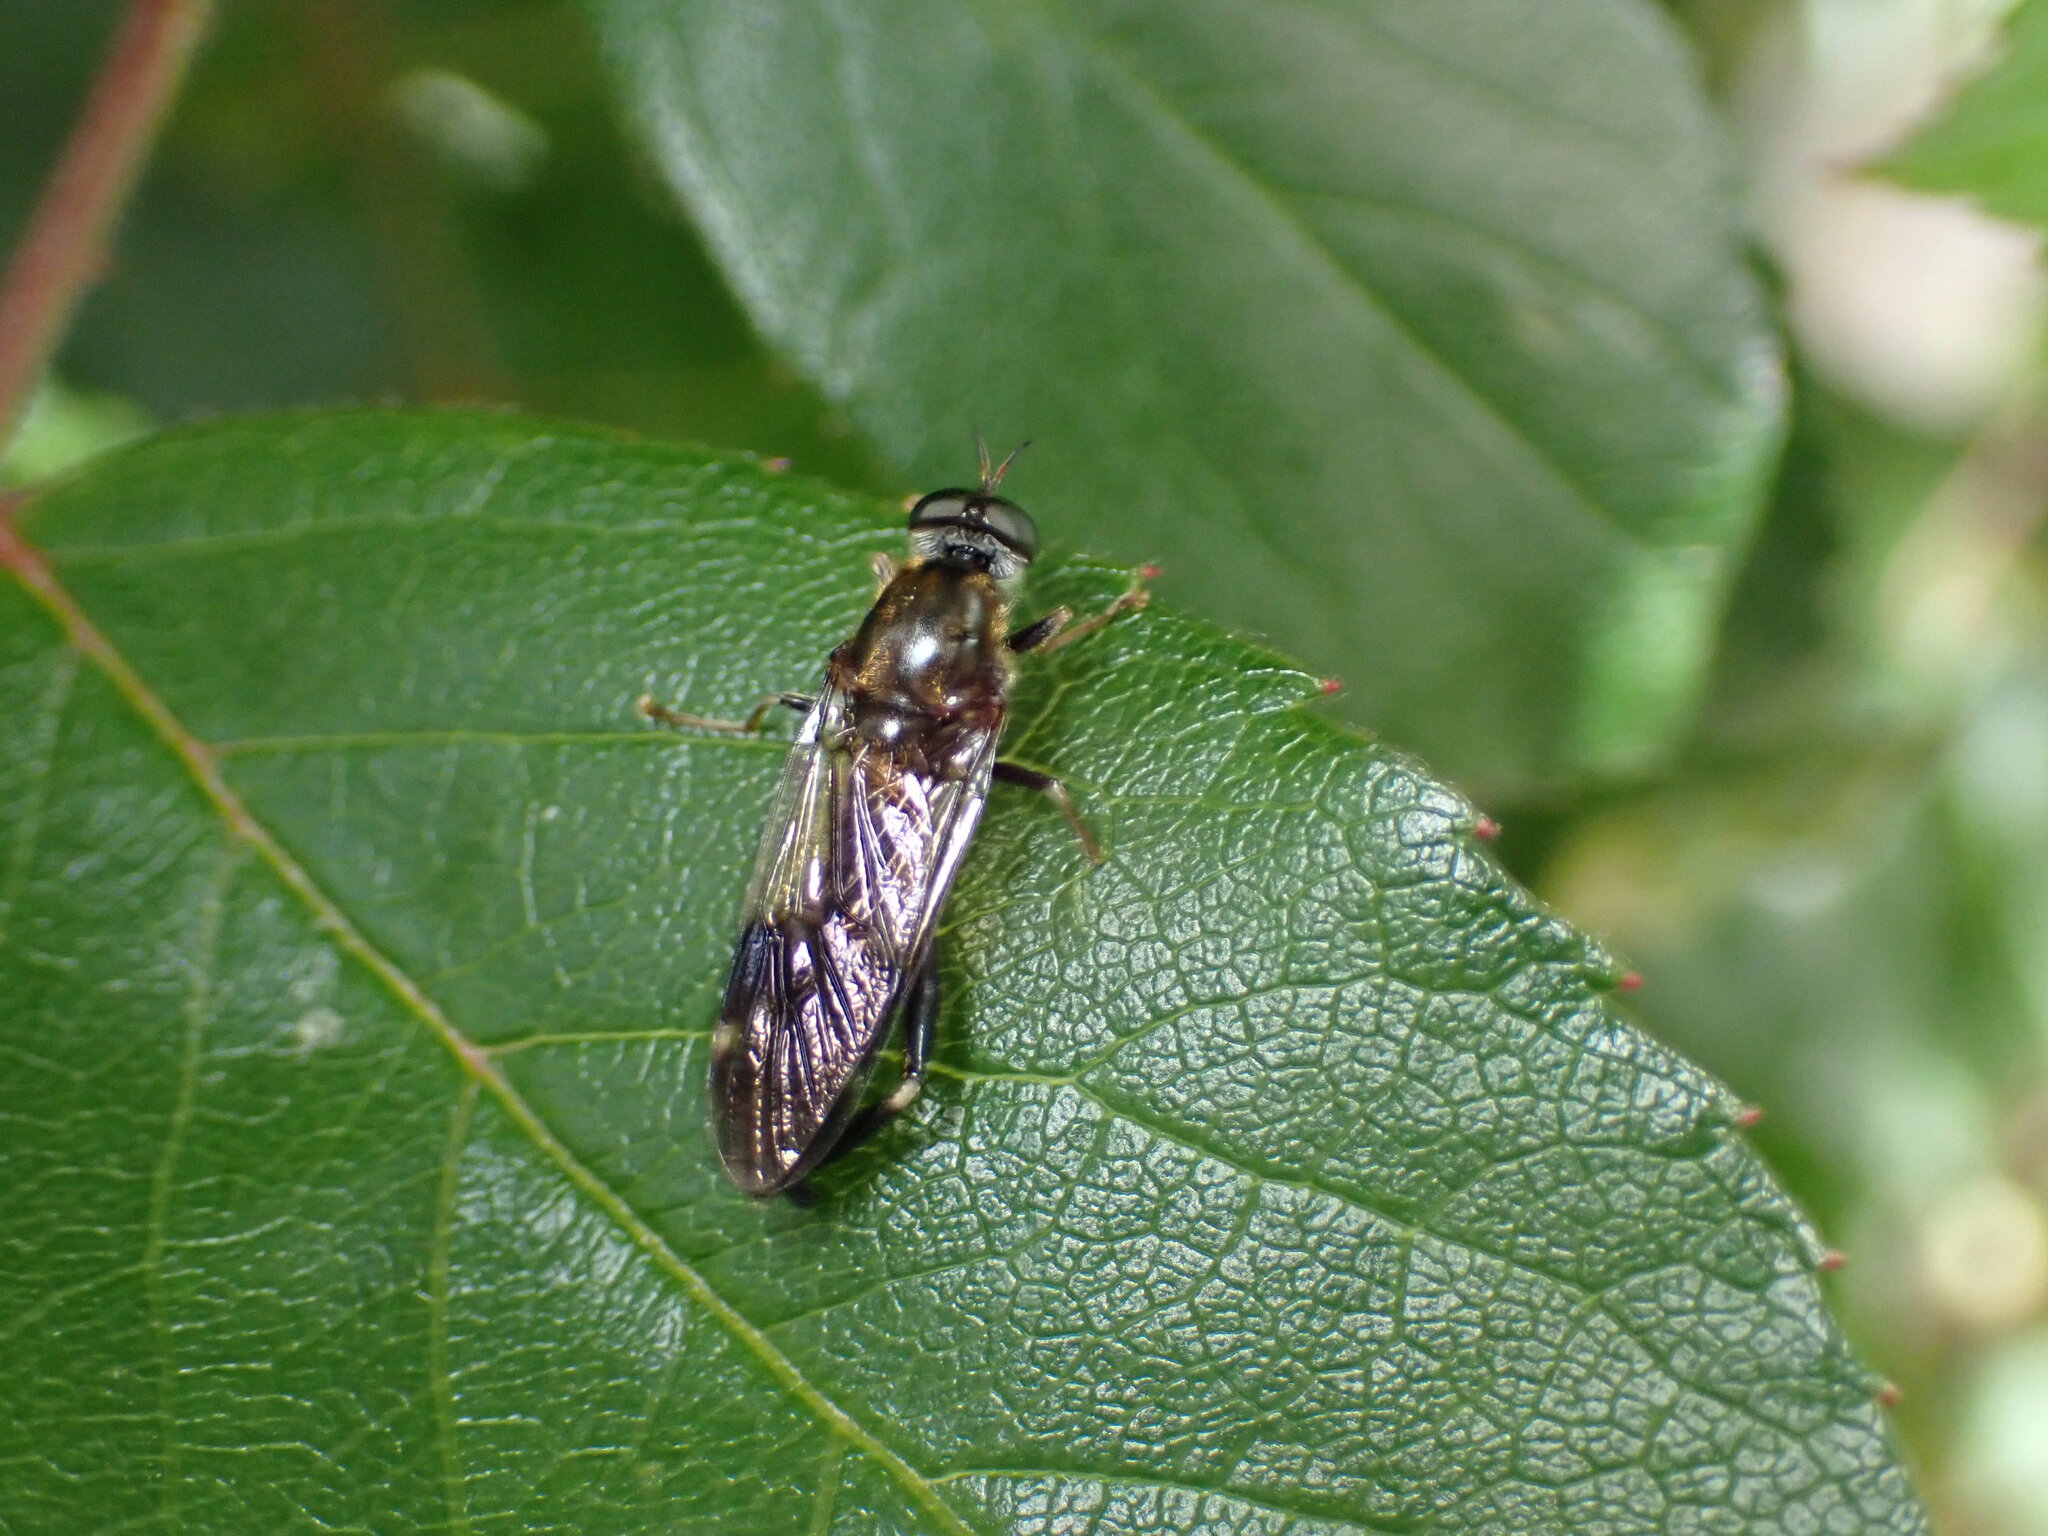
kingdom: Animalia
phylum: Arthropoda
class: Insecta
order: Diptera
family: Stratiomyidae
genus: Exaireta
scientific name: Exaireta spinigera
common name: Blue soldier fly
